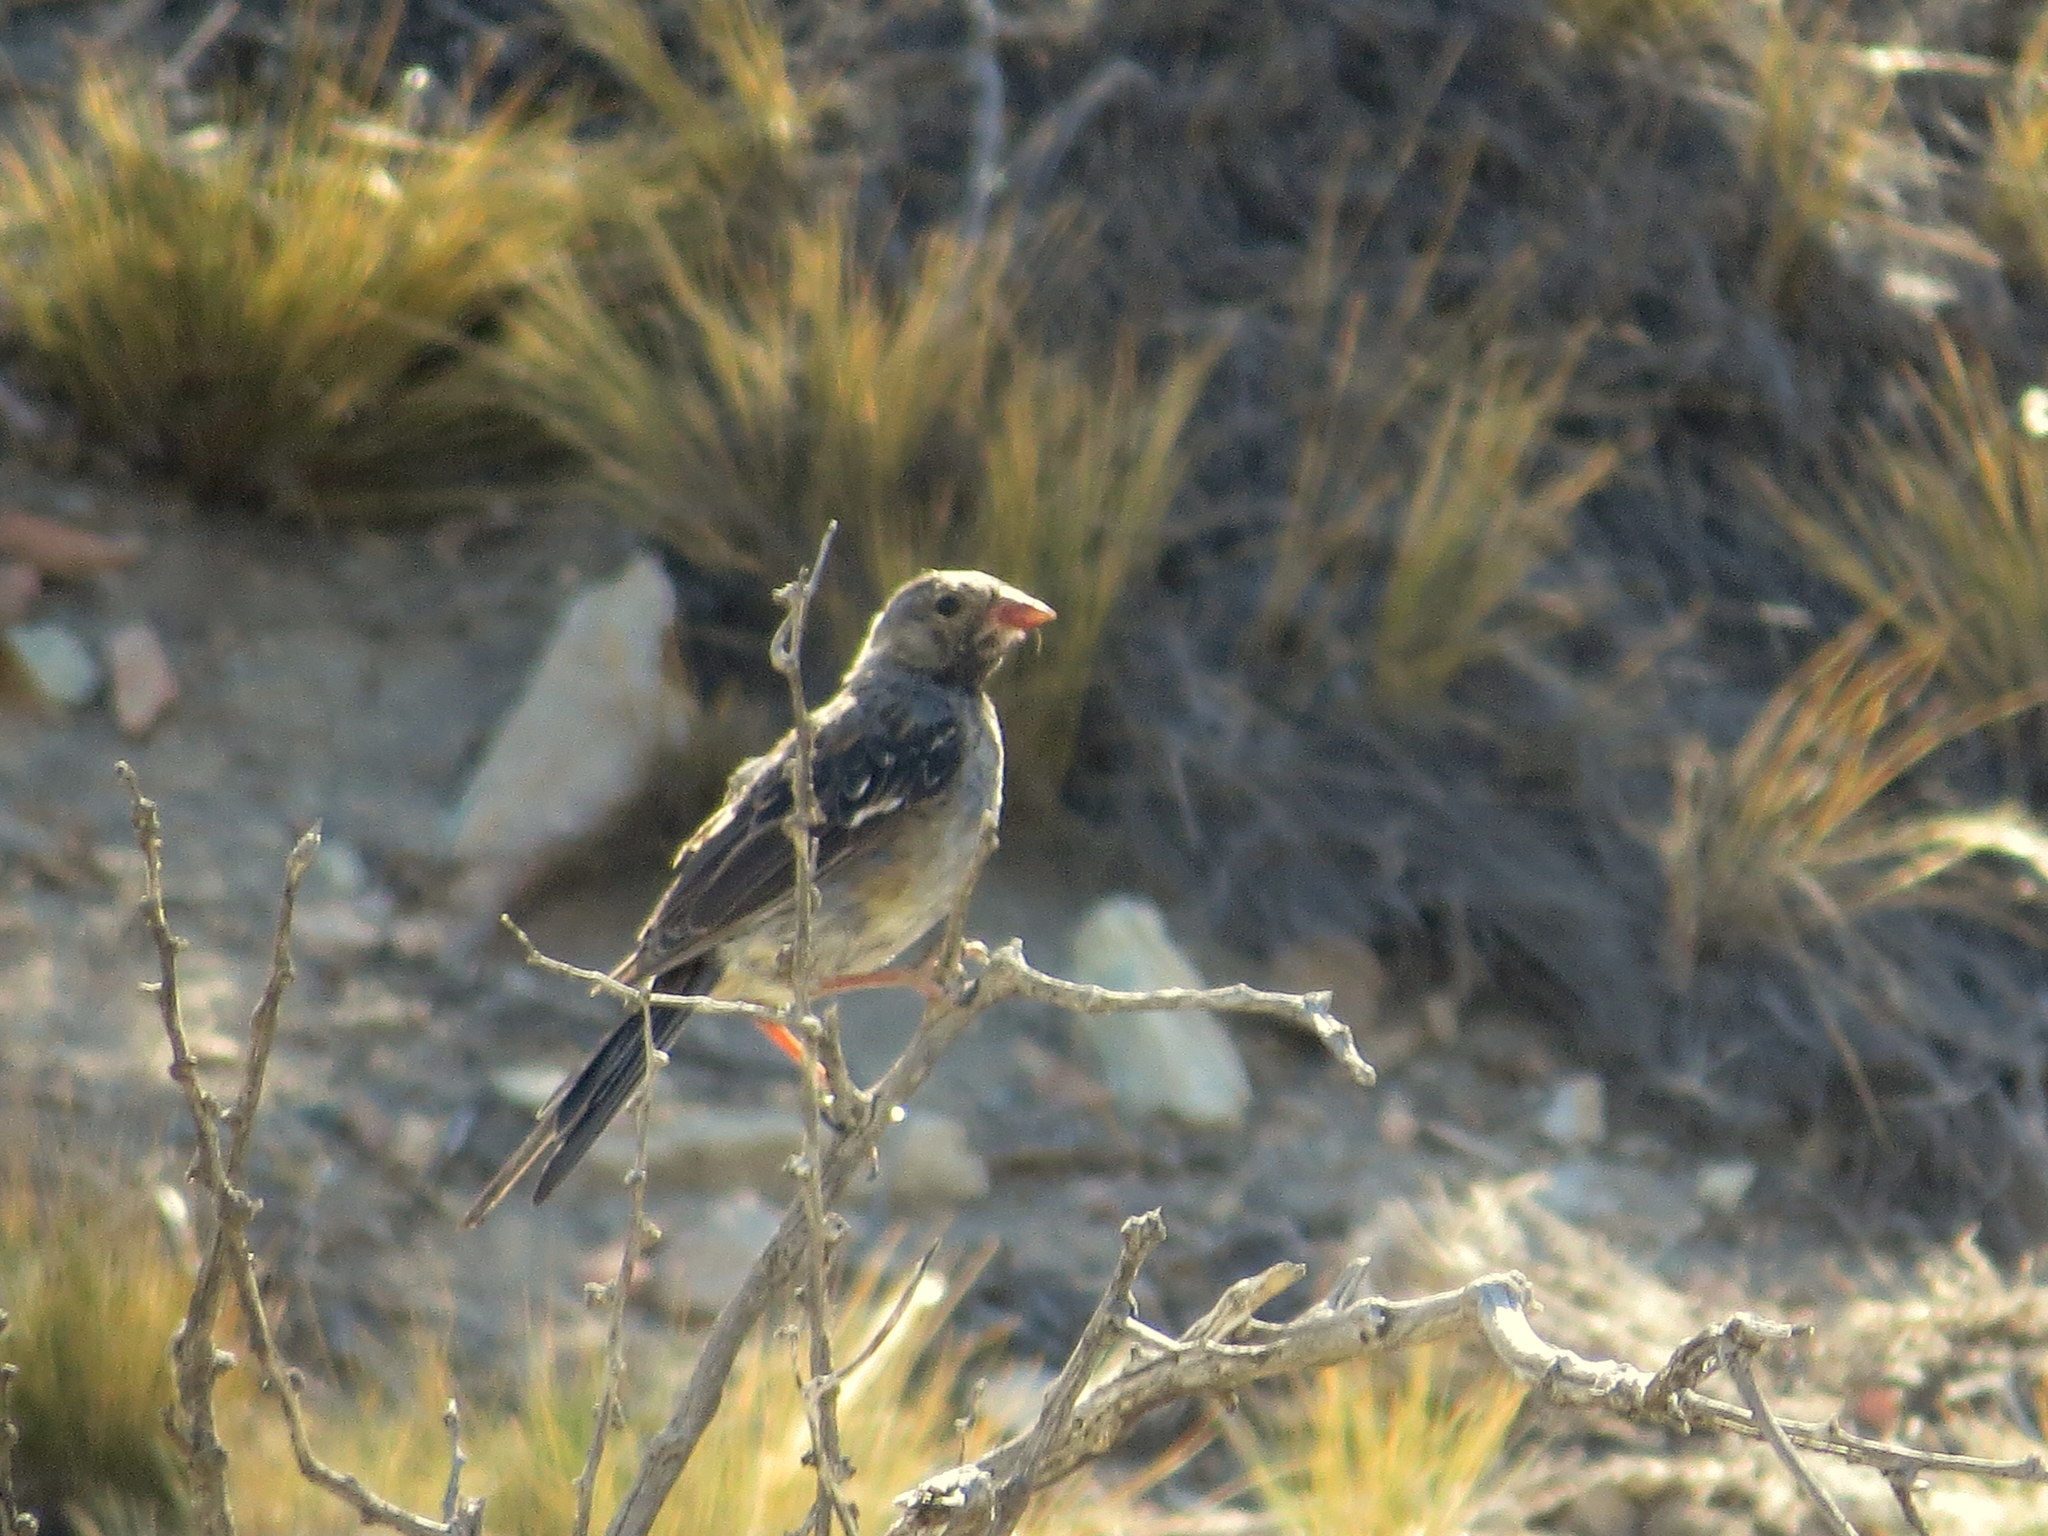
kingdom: Animalia
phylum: Chordata
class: Aves
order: Passeriformes
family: Thraupidae
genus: Rhopospina
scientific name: Rhopospina fruticeti
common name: Mourning sierra finch
